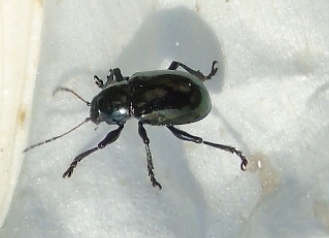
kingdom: Animalia
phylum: Arthropoda
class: Insecta
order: Coleoptera
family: Chrysomelidae
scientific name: Chrysomelidae
